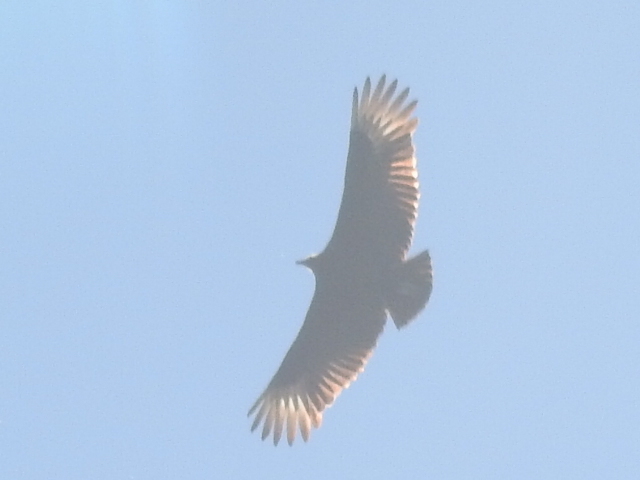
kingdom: Animalia
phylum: Chordata
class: Aves
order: Accipitriformes
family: Cathartidae
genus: Coragyps
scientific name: Coragyps atratus
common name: Black vulture
